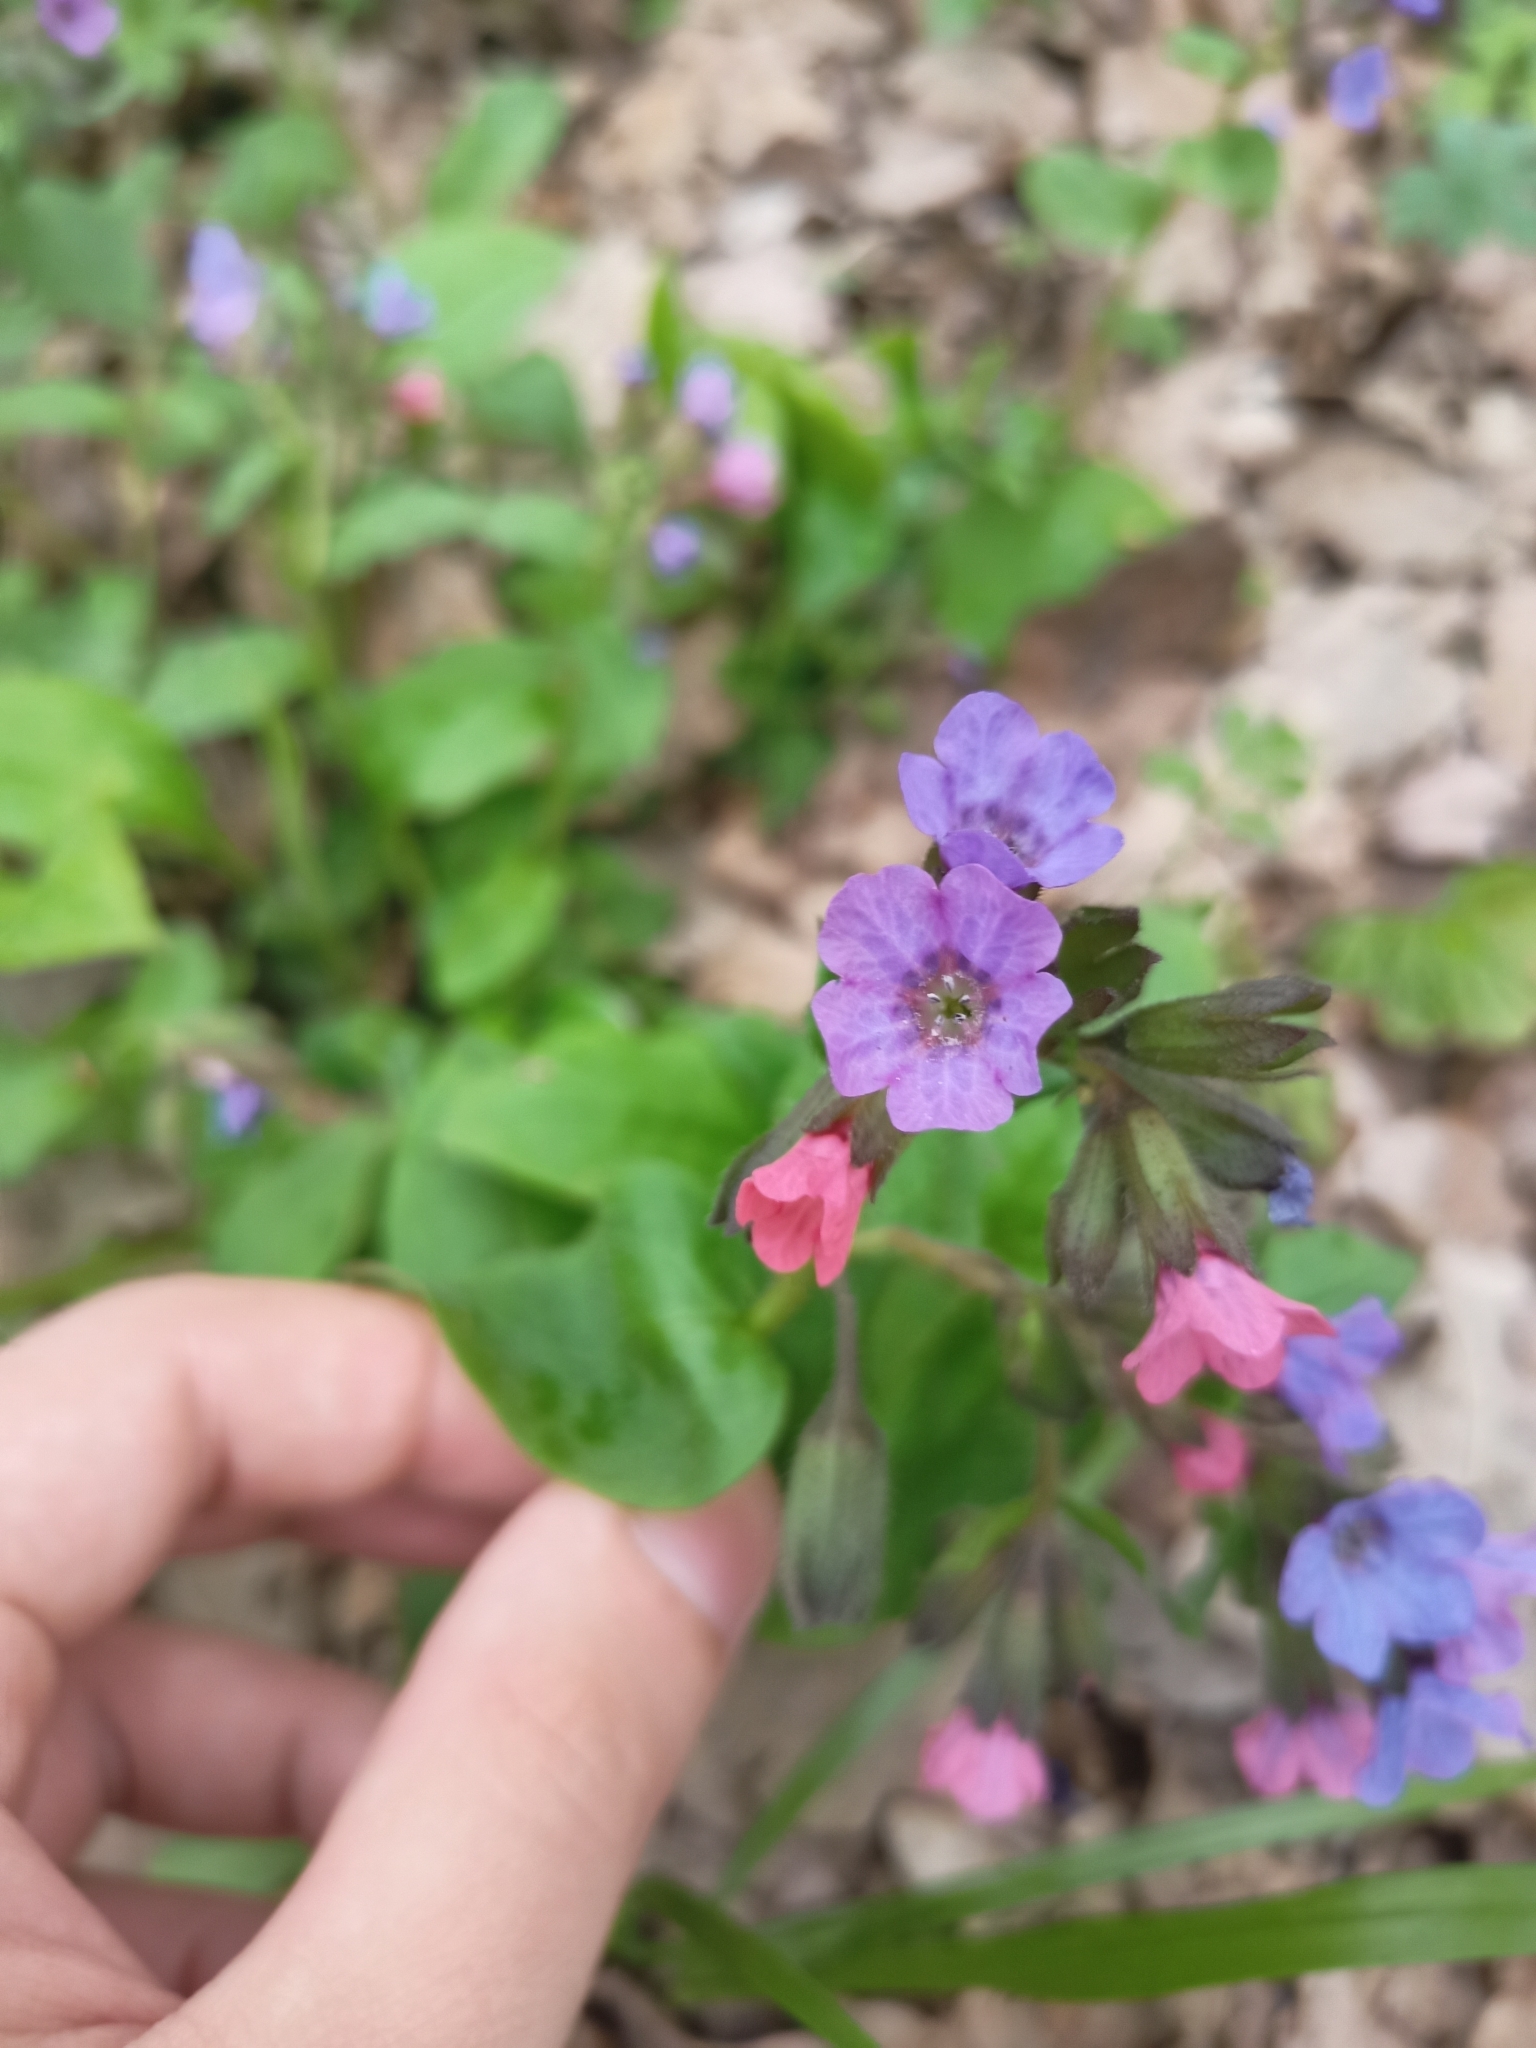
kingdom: Plantae
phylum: Tracheophyta
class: Magnoliopsida
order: Boraginales
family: Boraginaceae
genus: Pulmonaria
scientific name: Pulmonaria obscura
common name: Suffolk lungwort
